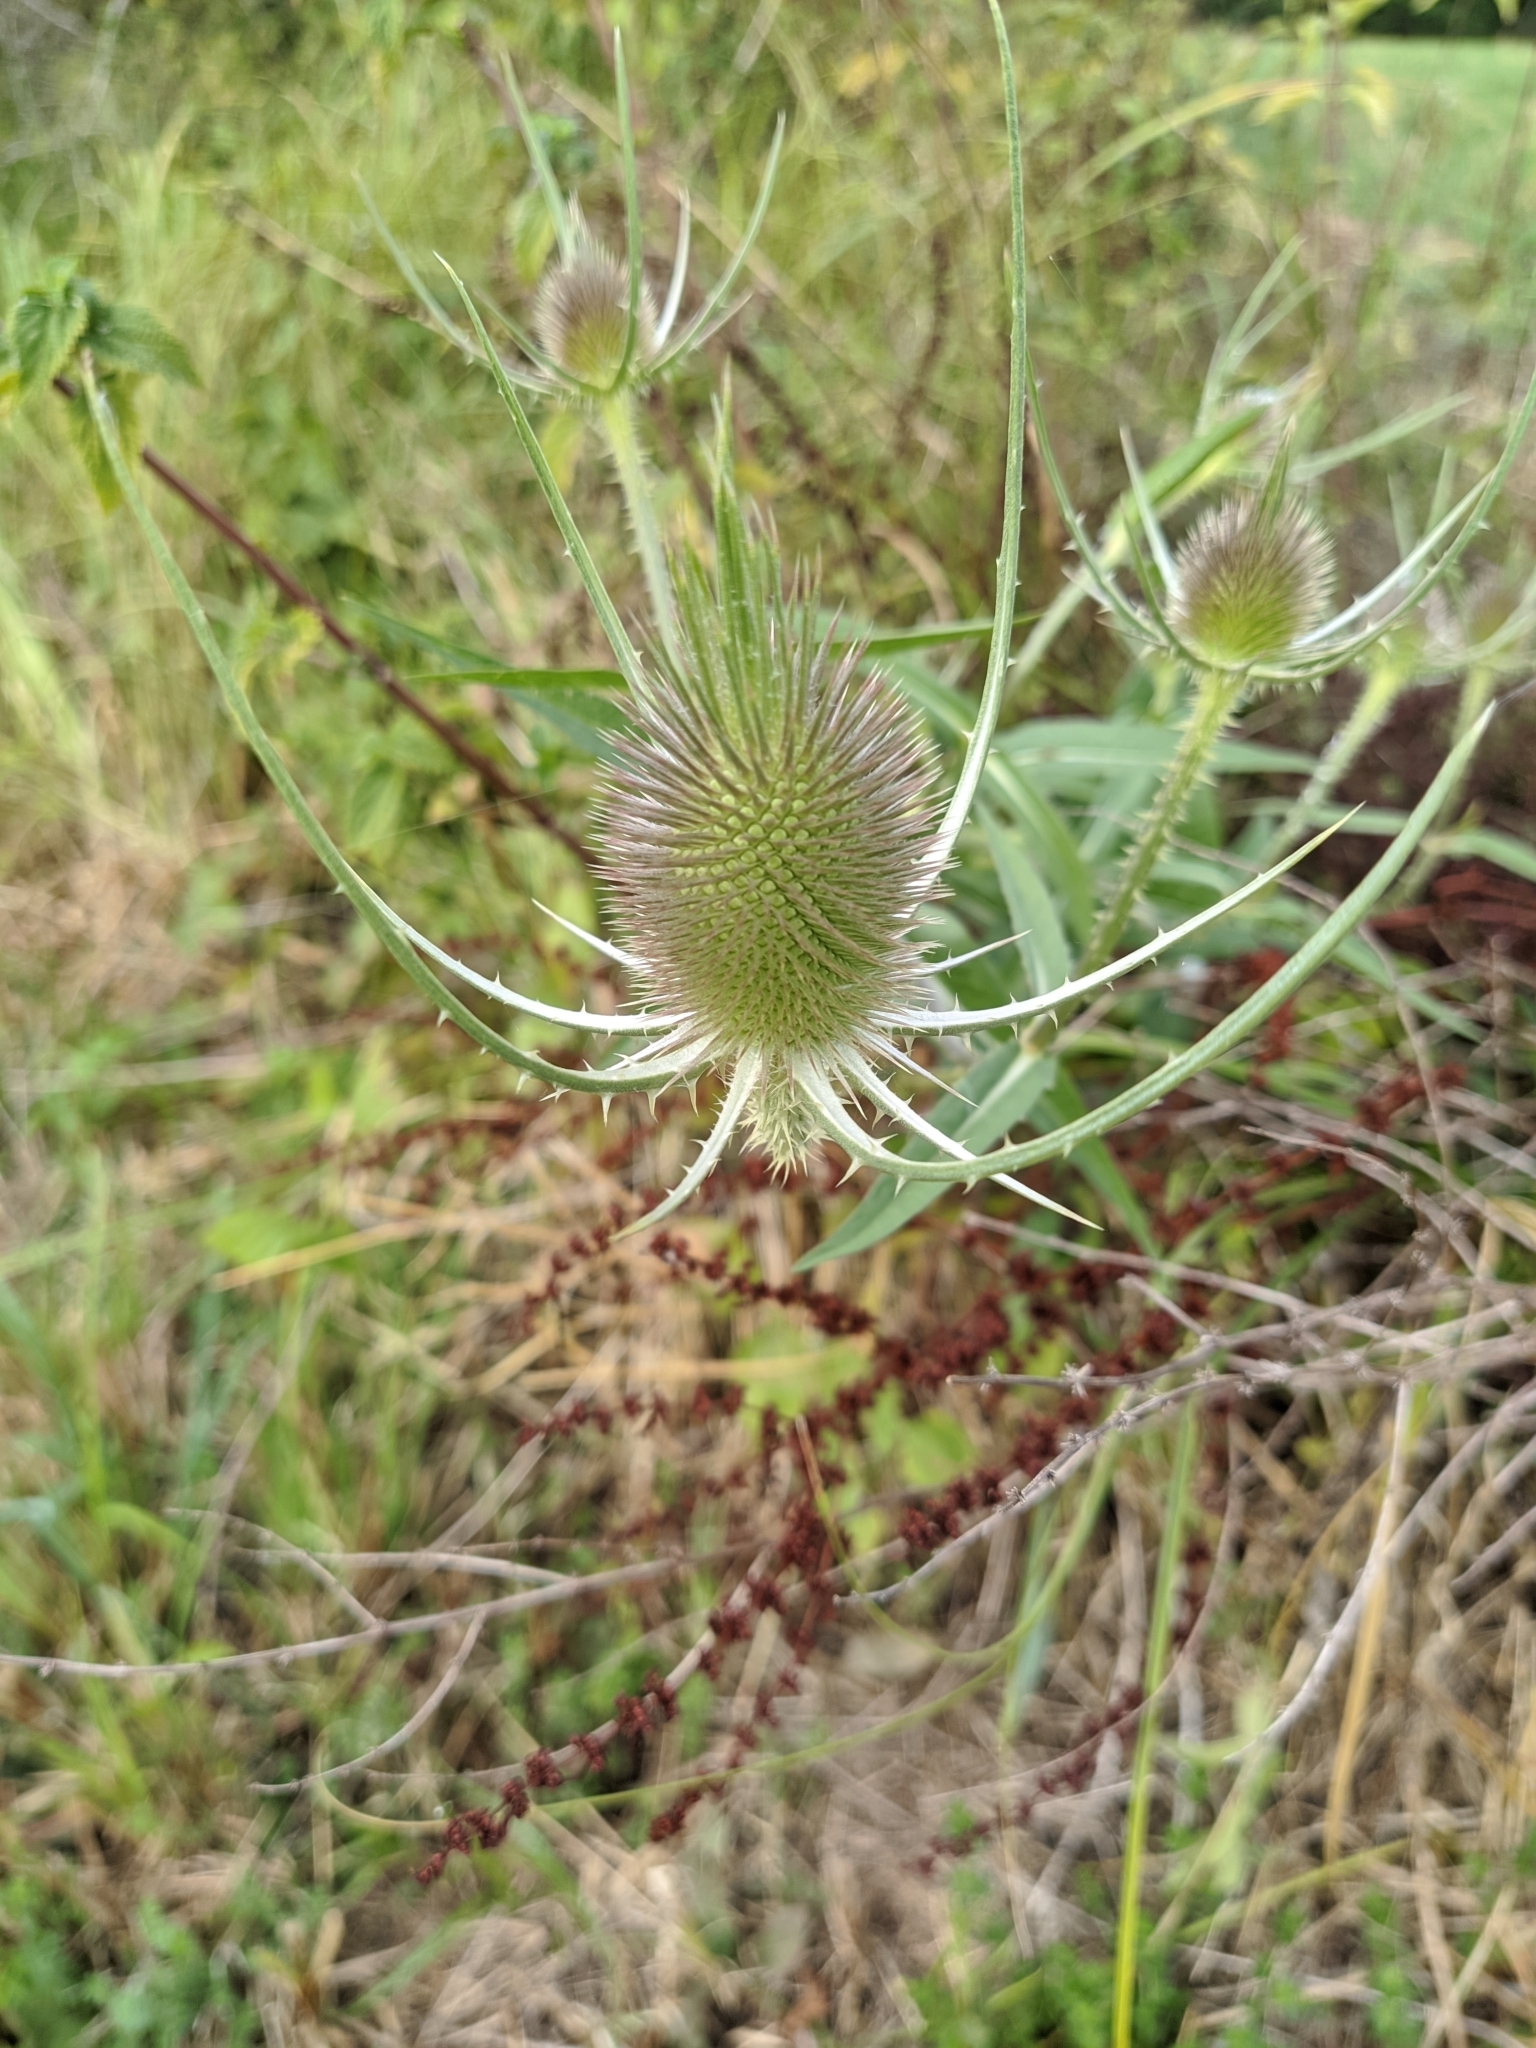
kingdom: Plantae
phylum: Tracheophyta
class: Magnoliopsida
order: Dipsacales
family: Caprifoliaceae
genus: Dipsacus
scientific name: Dipsacus fullonum
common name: Teasel
